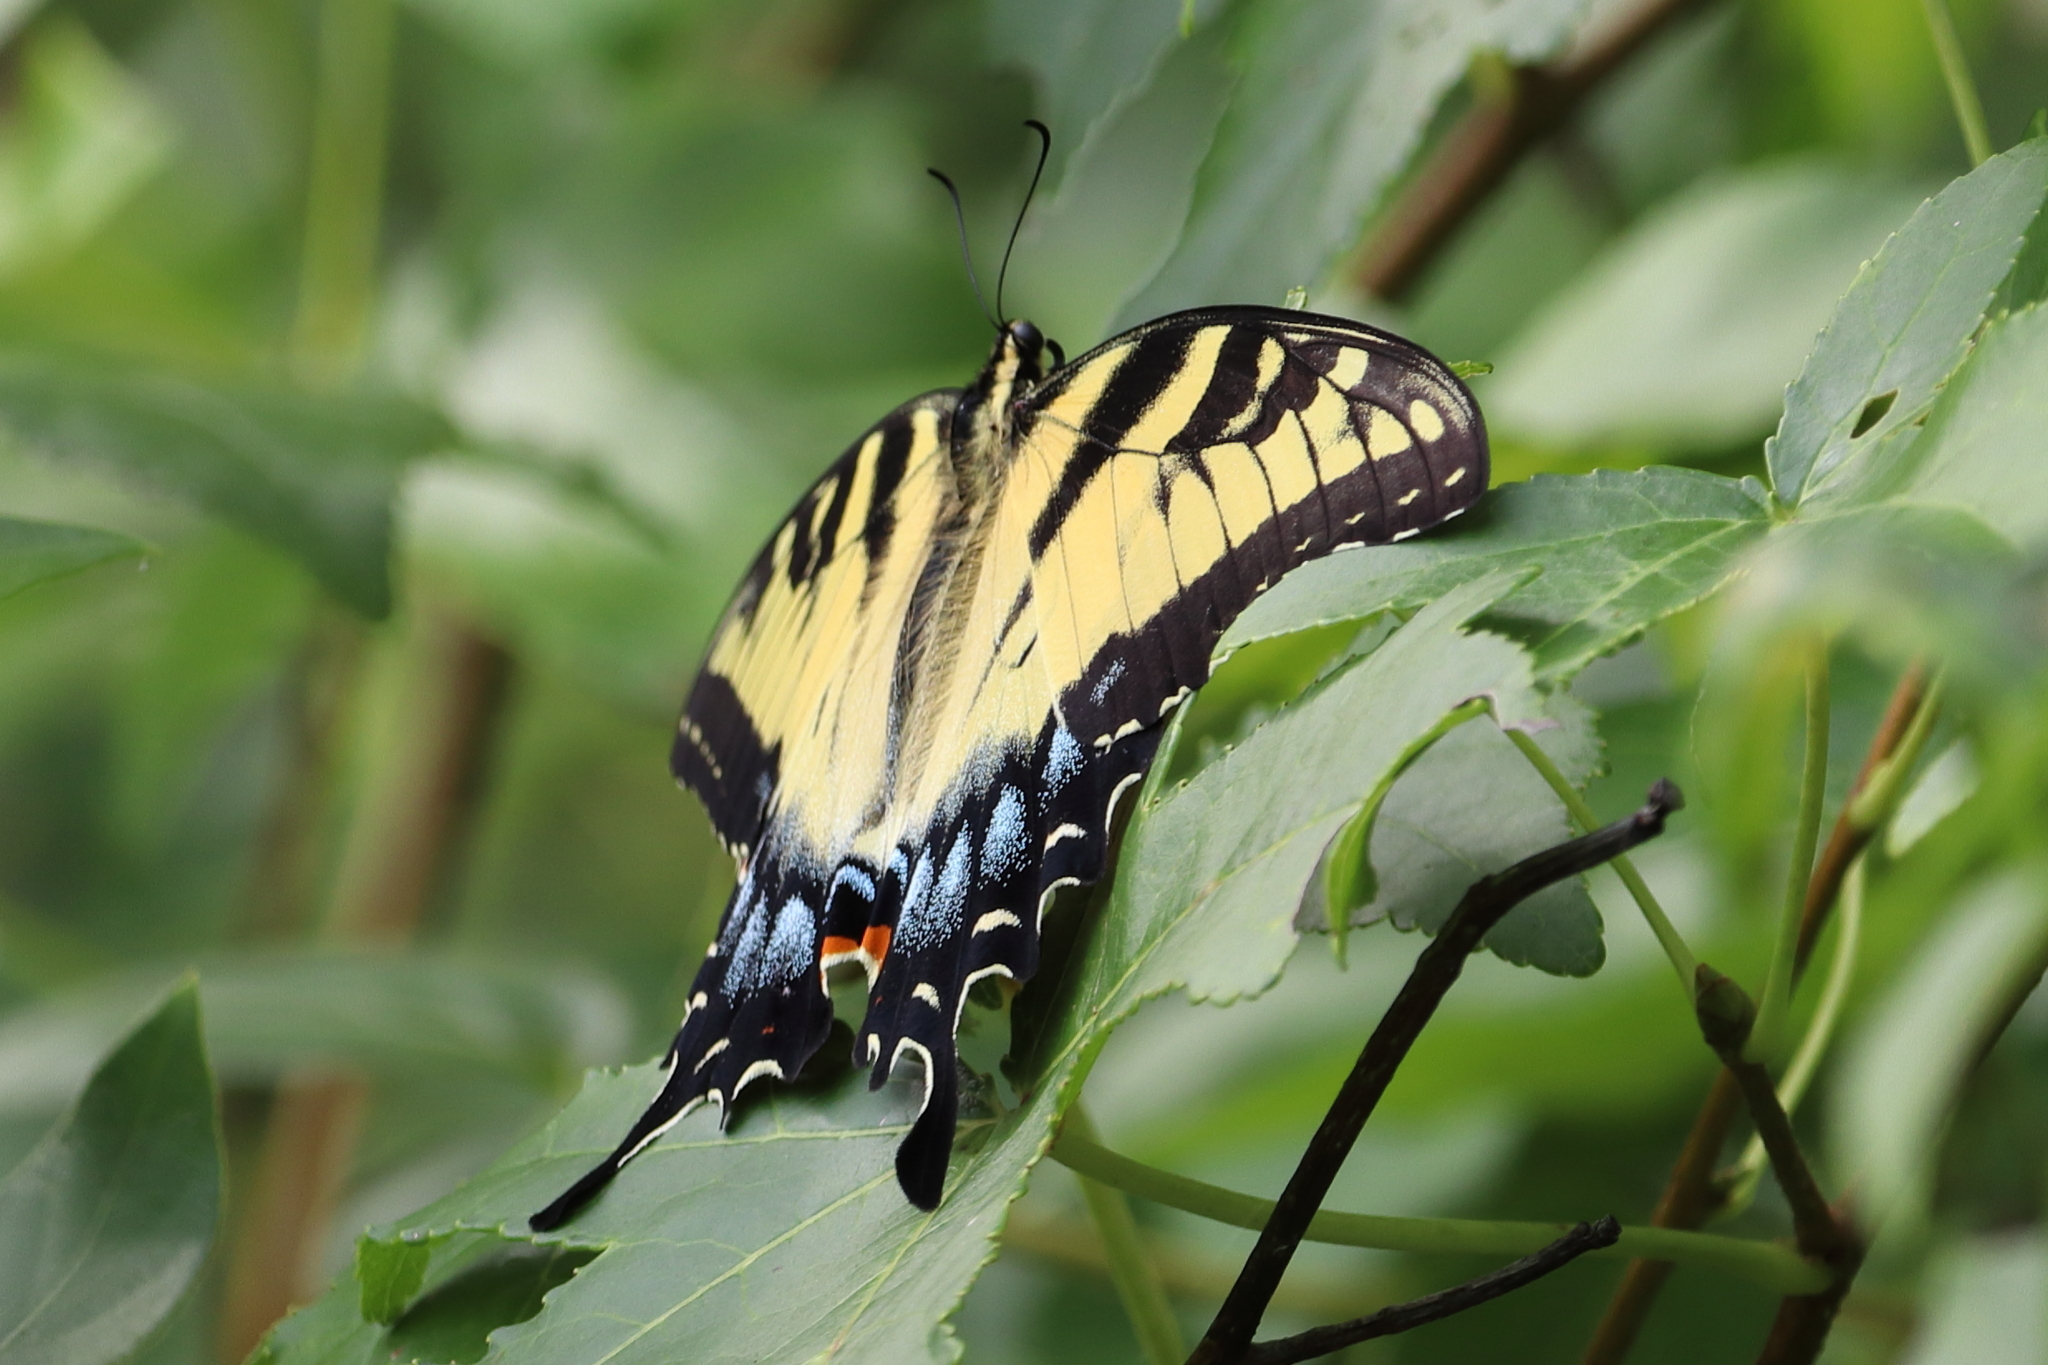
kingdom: Animalia
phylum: Arthropoda
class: Insecta
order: Lepidoptera
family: Papilionidae
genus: Papilio
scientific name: Papilio glaucus
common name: Tiger swallowtail
